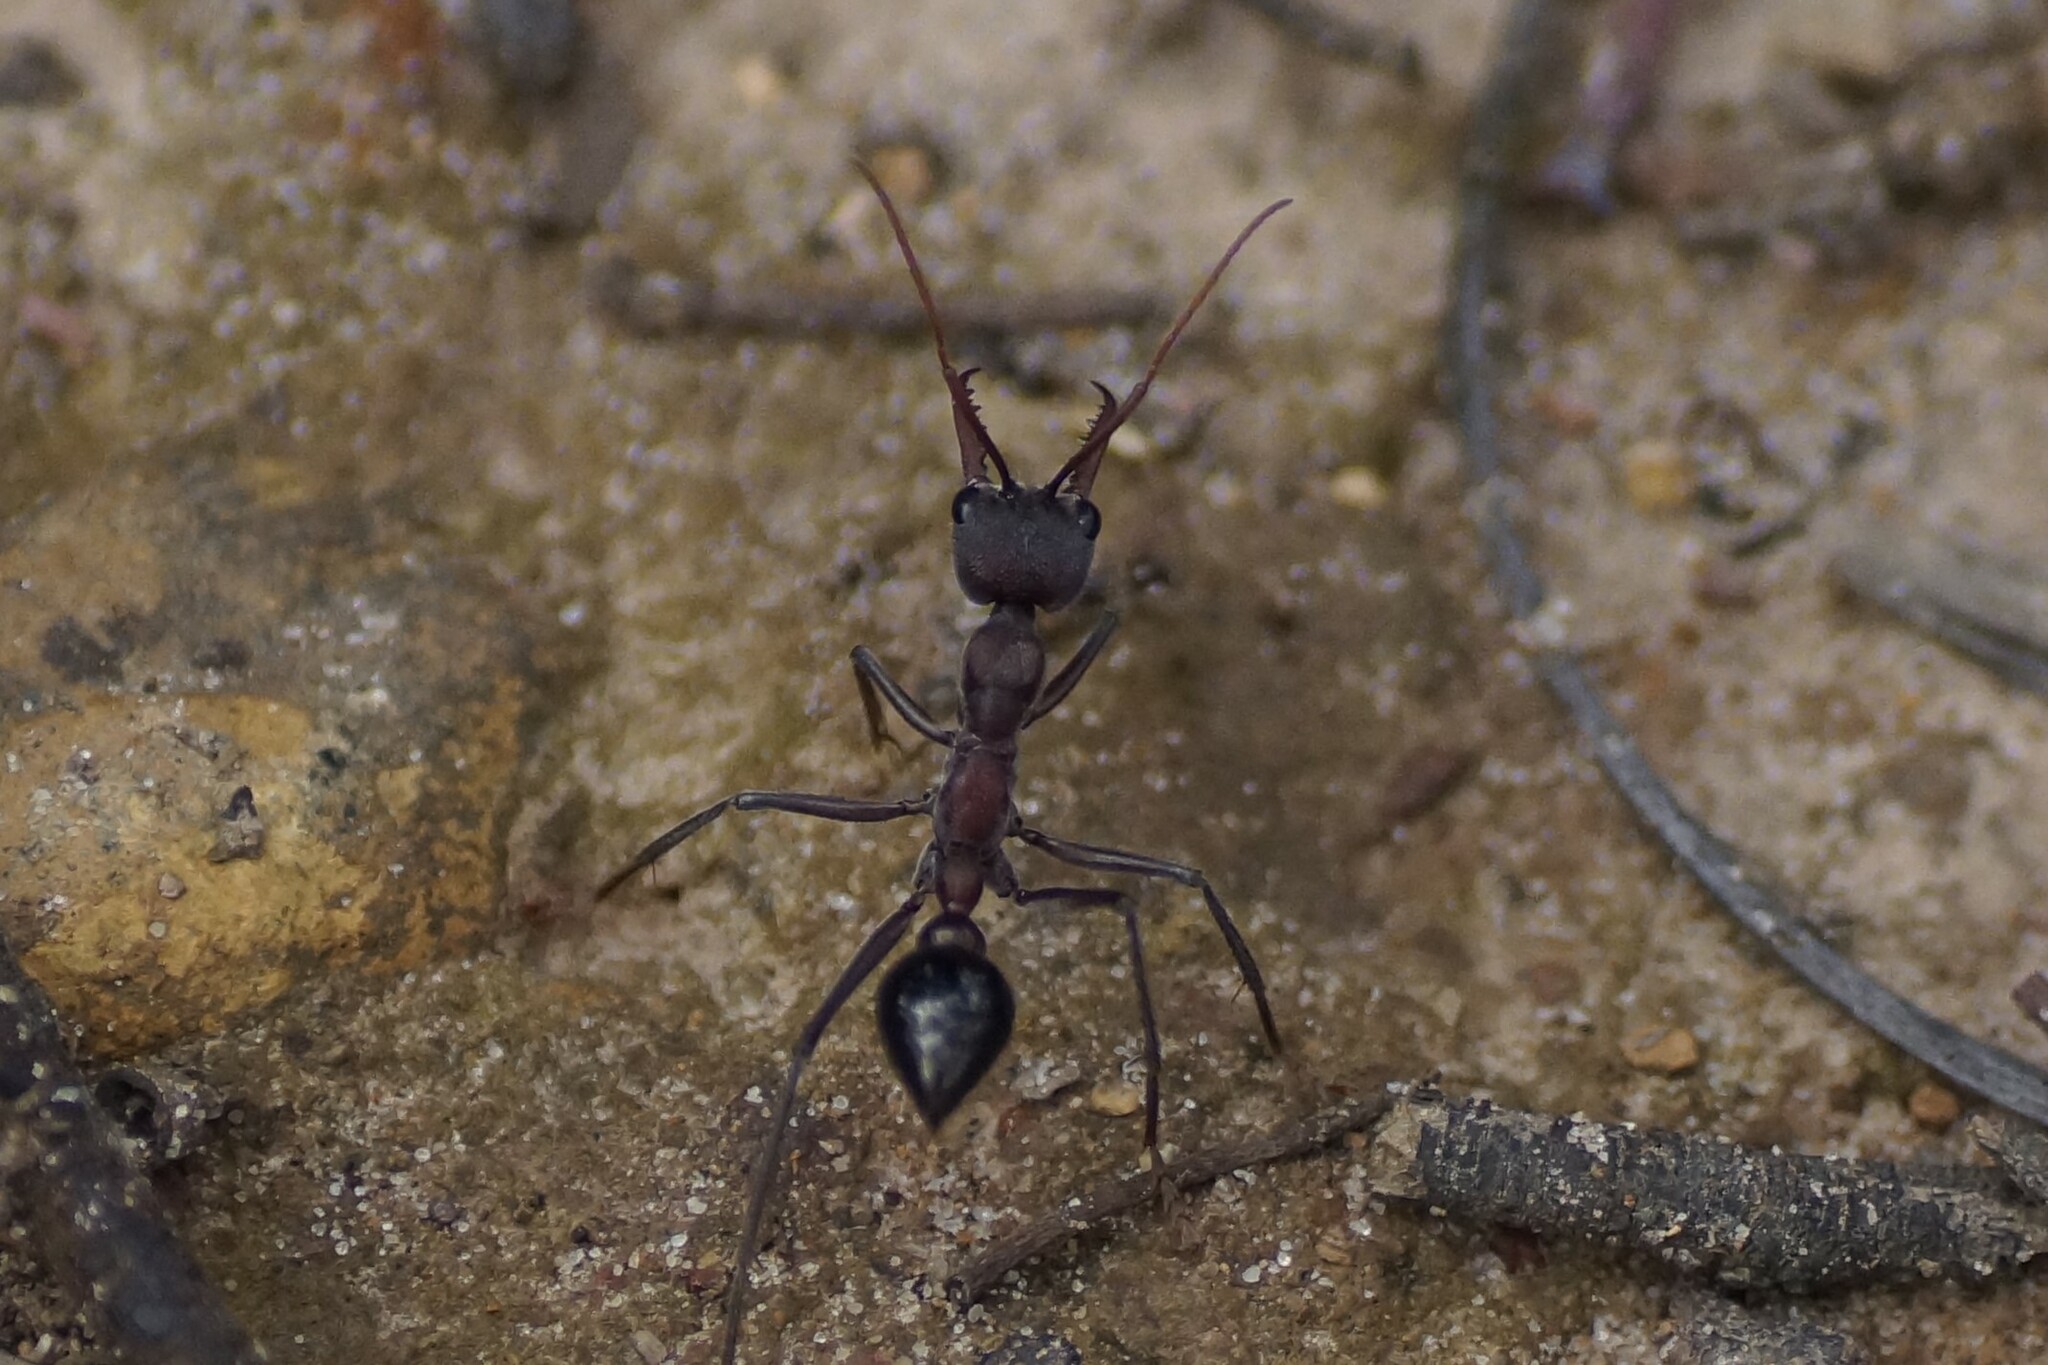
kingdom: Animalia
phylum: Arthropoda
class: Insecta
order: Hymenoptera
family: Formicidae
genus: Myrmecia
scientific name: Myrmecia simillima
